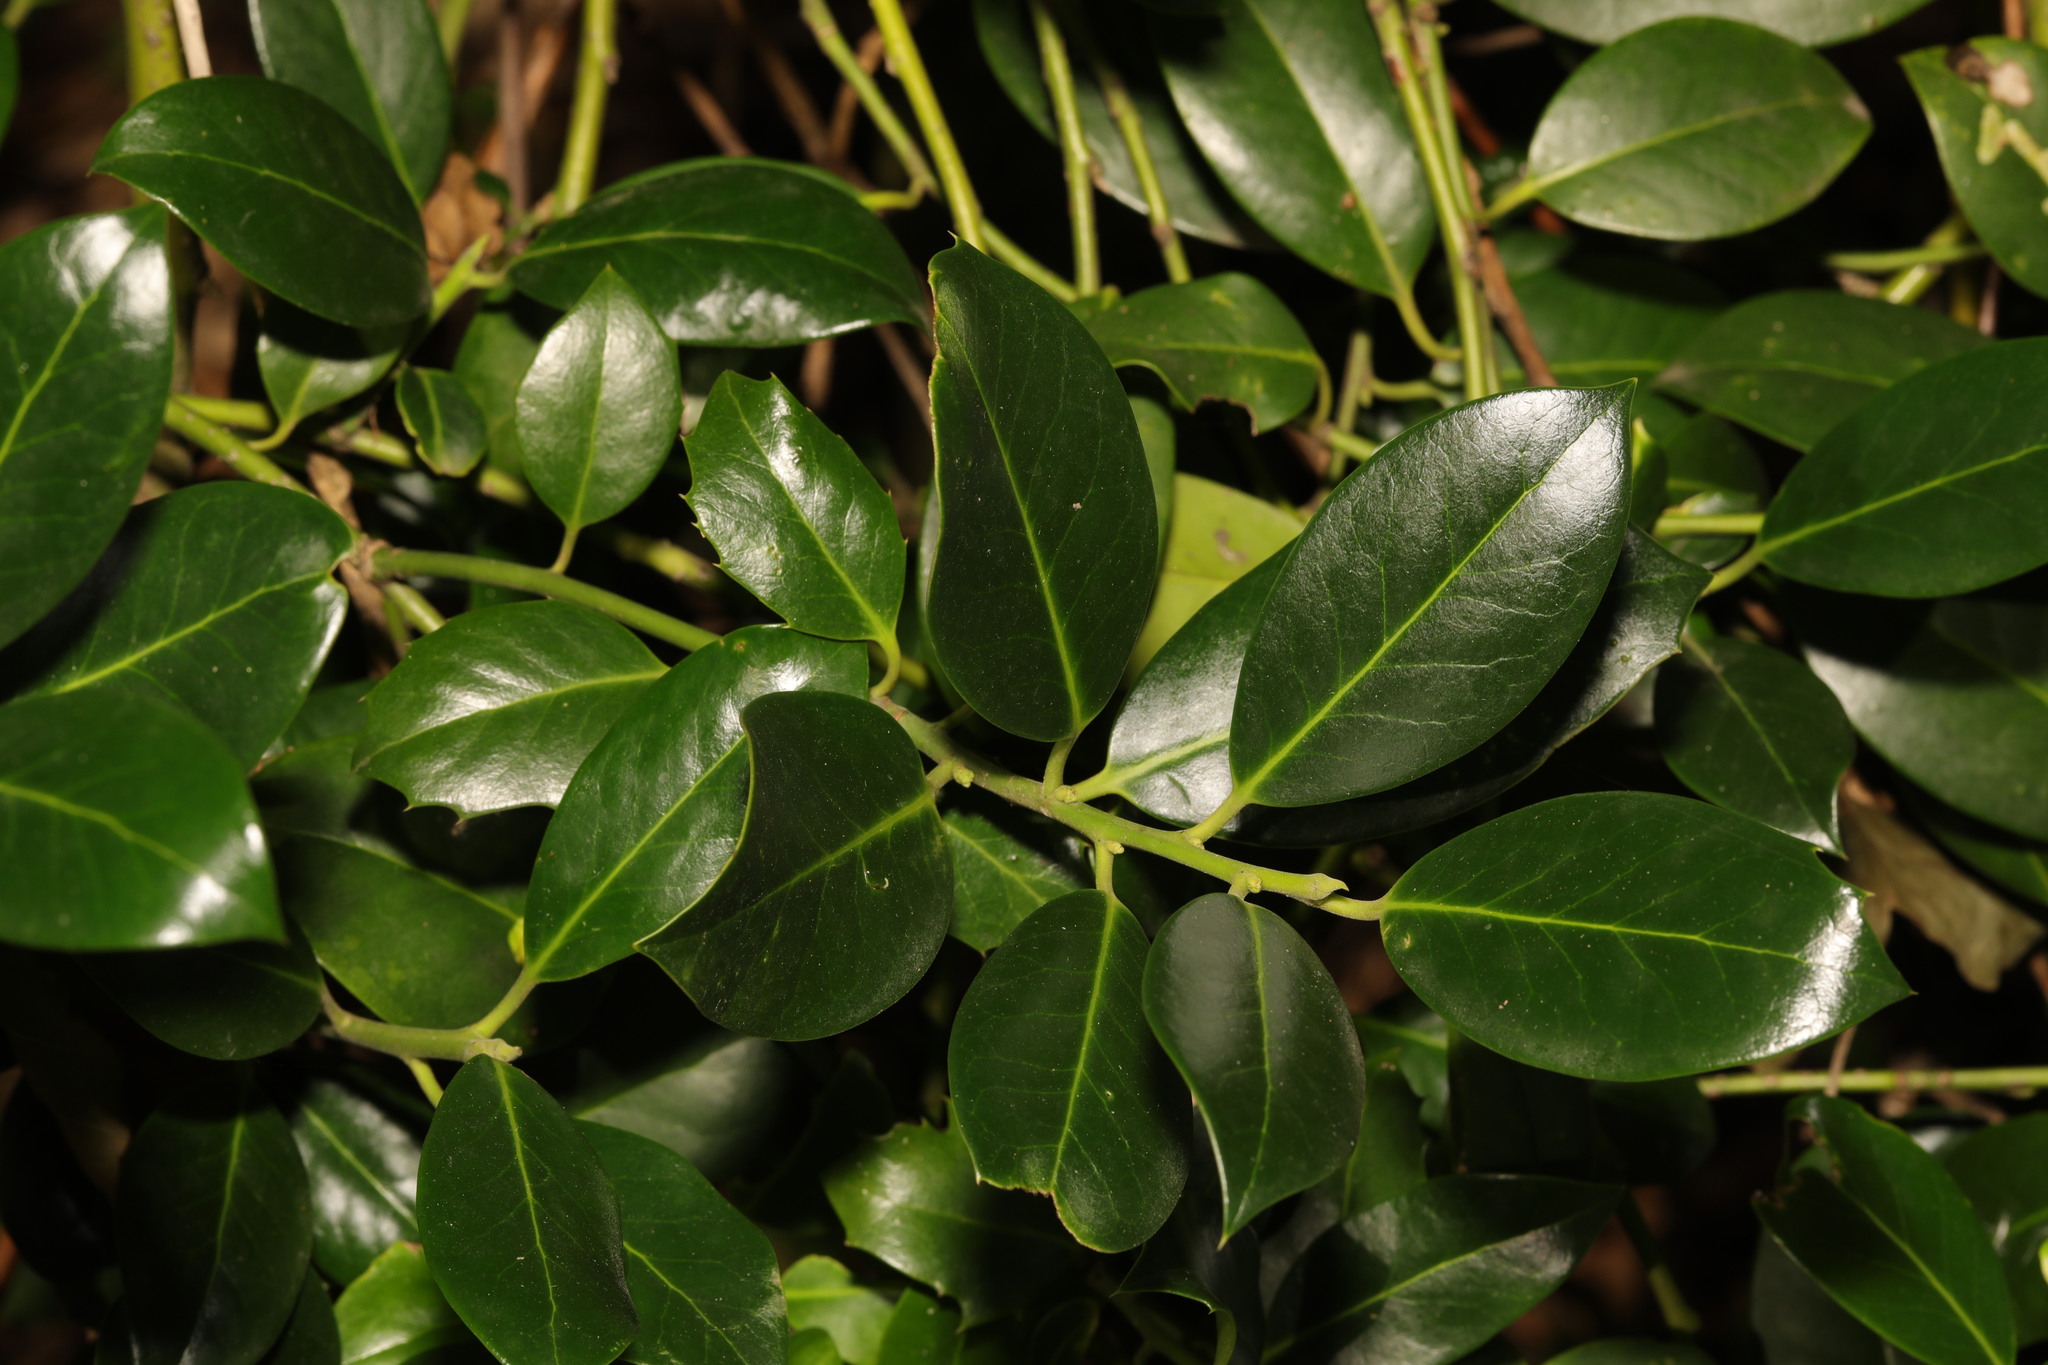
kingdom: Plantae
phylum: Tracheophyta
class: Magnoliopsida
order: Aquifoliales
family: Aquifoliaceae
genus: Ilex
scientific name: Ilex aquifolium
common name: English holly
